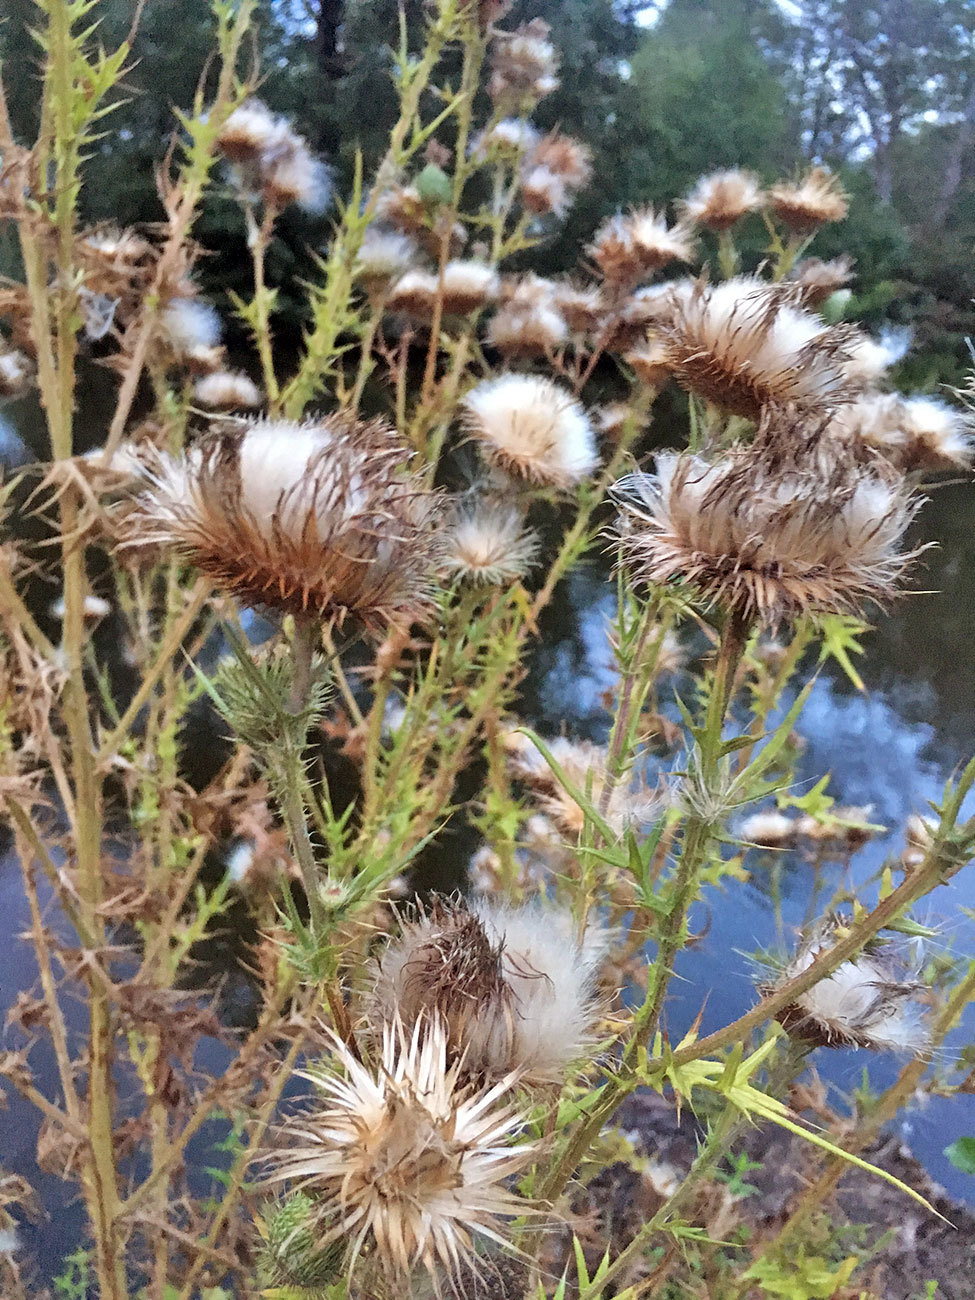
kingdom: Plantae
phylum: Tracheophyta
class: Magnoliopsida
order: Asterales
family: Asteraceae
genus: Cirsium
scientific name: Cirsium vulgare
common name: Bull thistle
